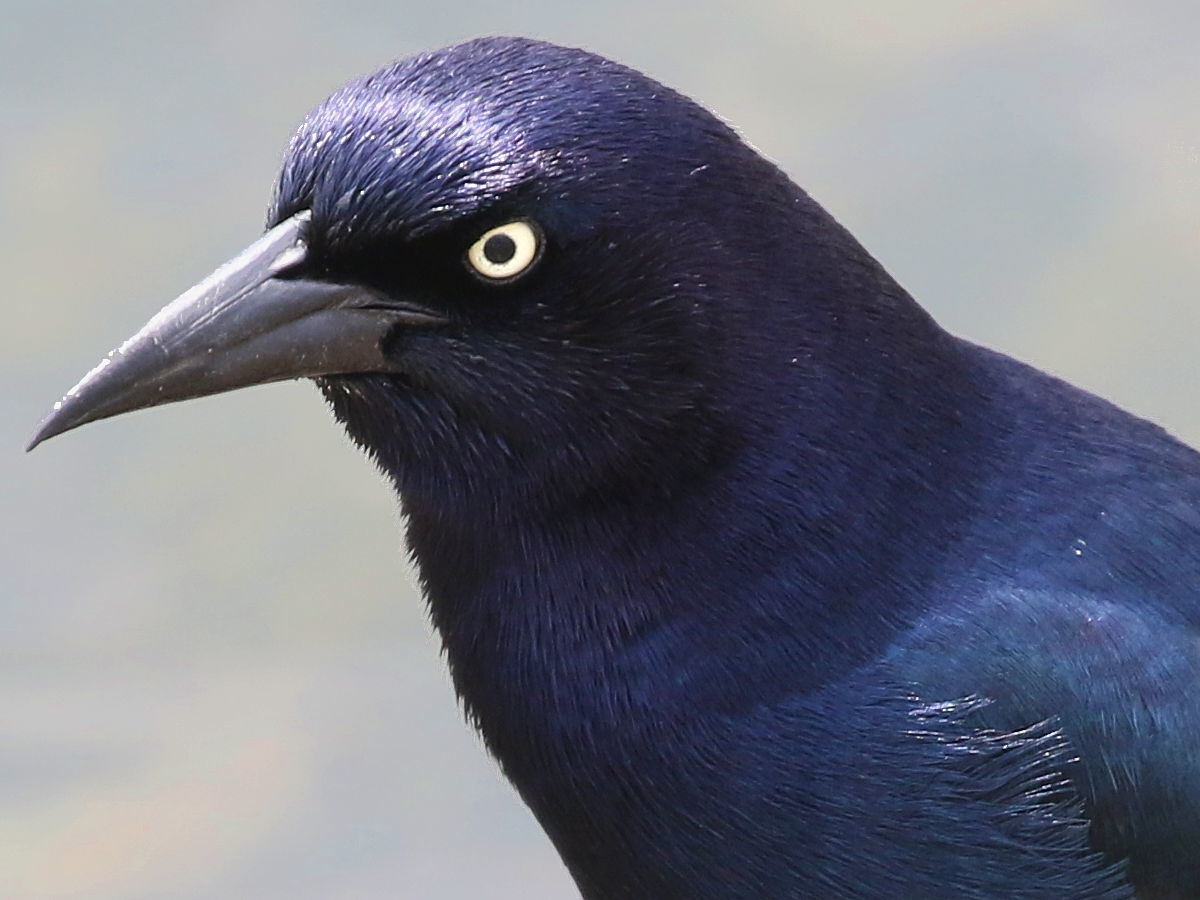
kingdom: Animalia
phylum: Chordata
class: Aves
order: Passeriformes
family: Icteridae
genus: Quiscalus
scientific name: Quiscalus major
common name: Boat-tailed grackle
